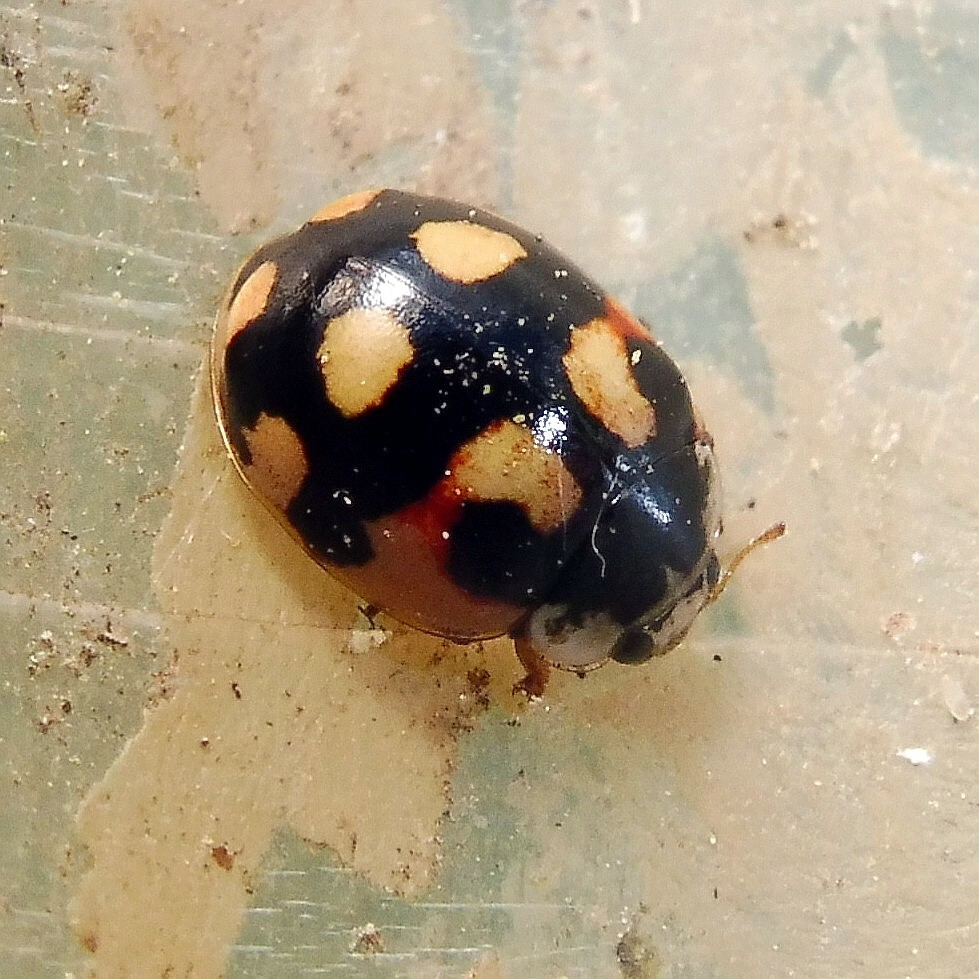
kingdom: Animalia
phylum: Arthropoda
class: Insecta
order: Coleoptera
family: Coccinellidae
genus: Adalia
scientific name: Adalia decempunctata
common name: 10-spot ladybird
